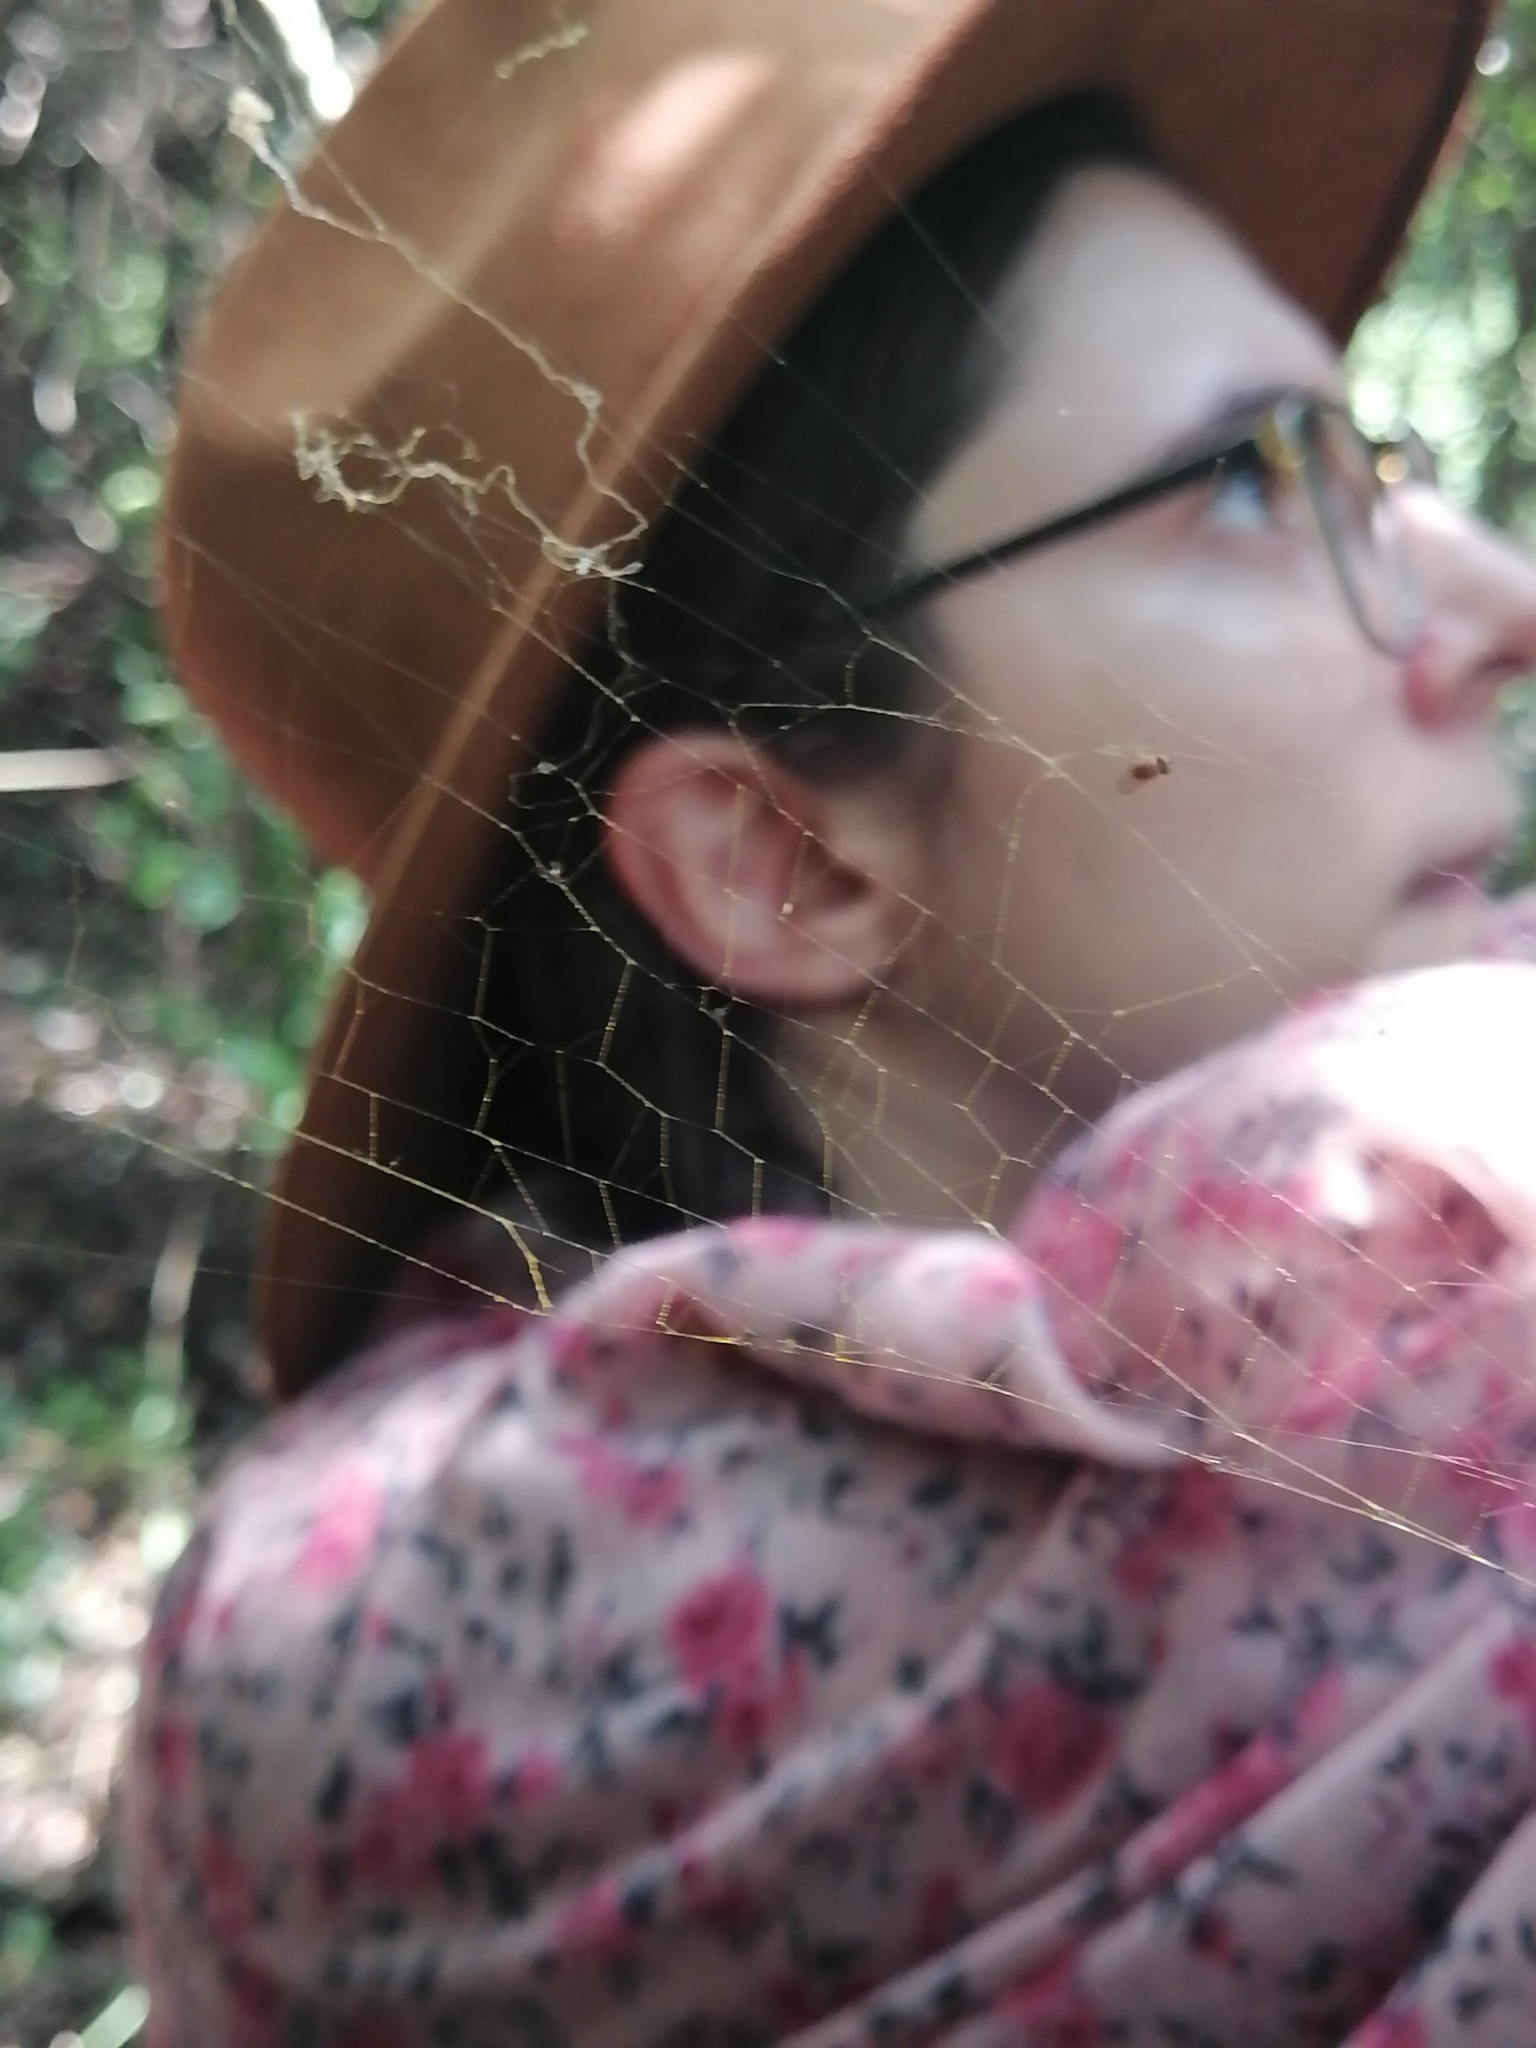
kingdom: Animalia
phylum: Arthropoda
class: Arachnida
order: Araneae
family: Araneidae
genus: Trichonephila
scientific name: Trichonephila clavipes
